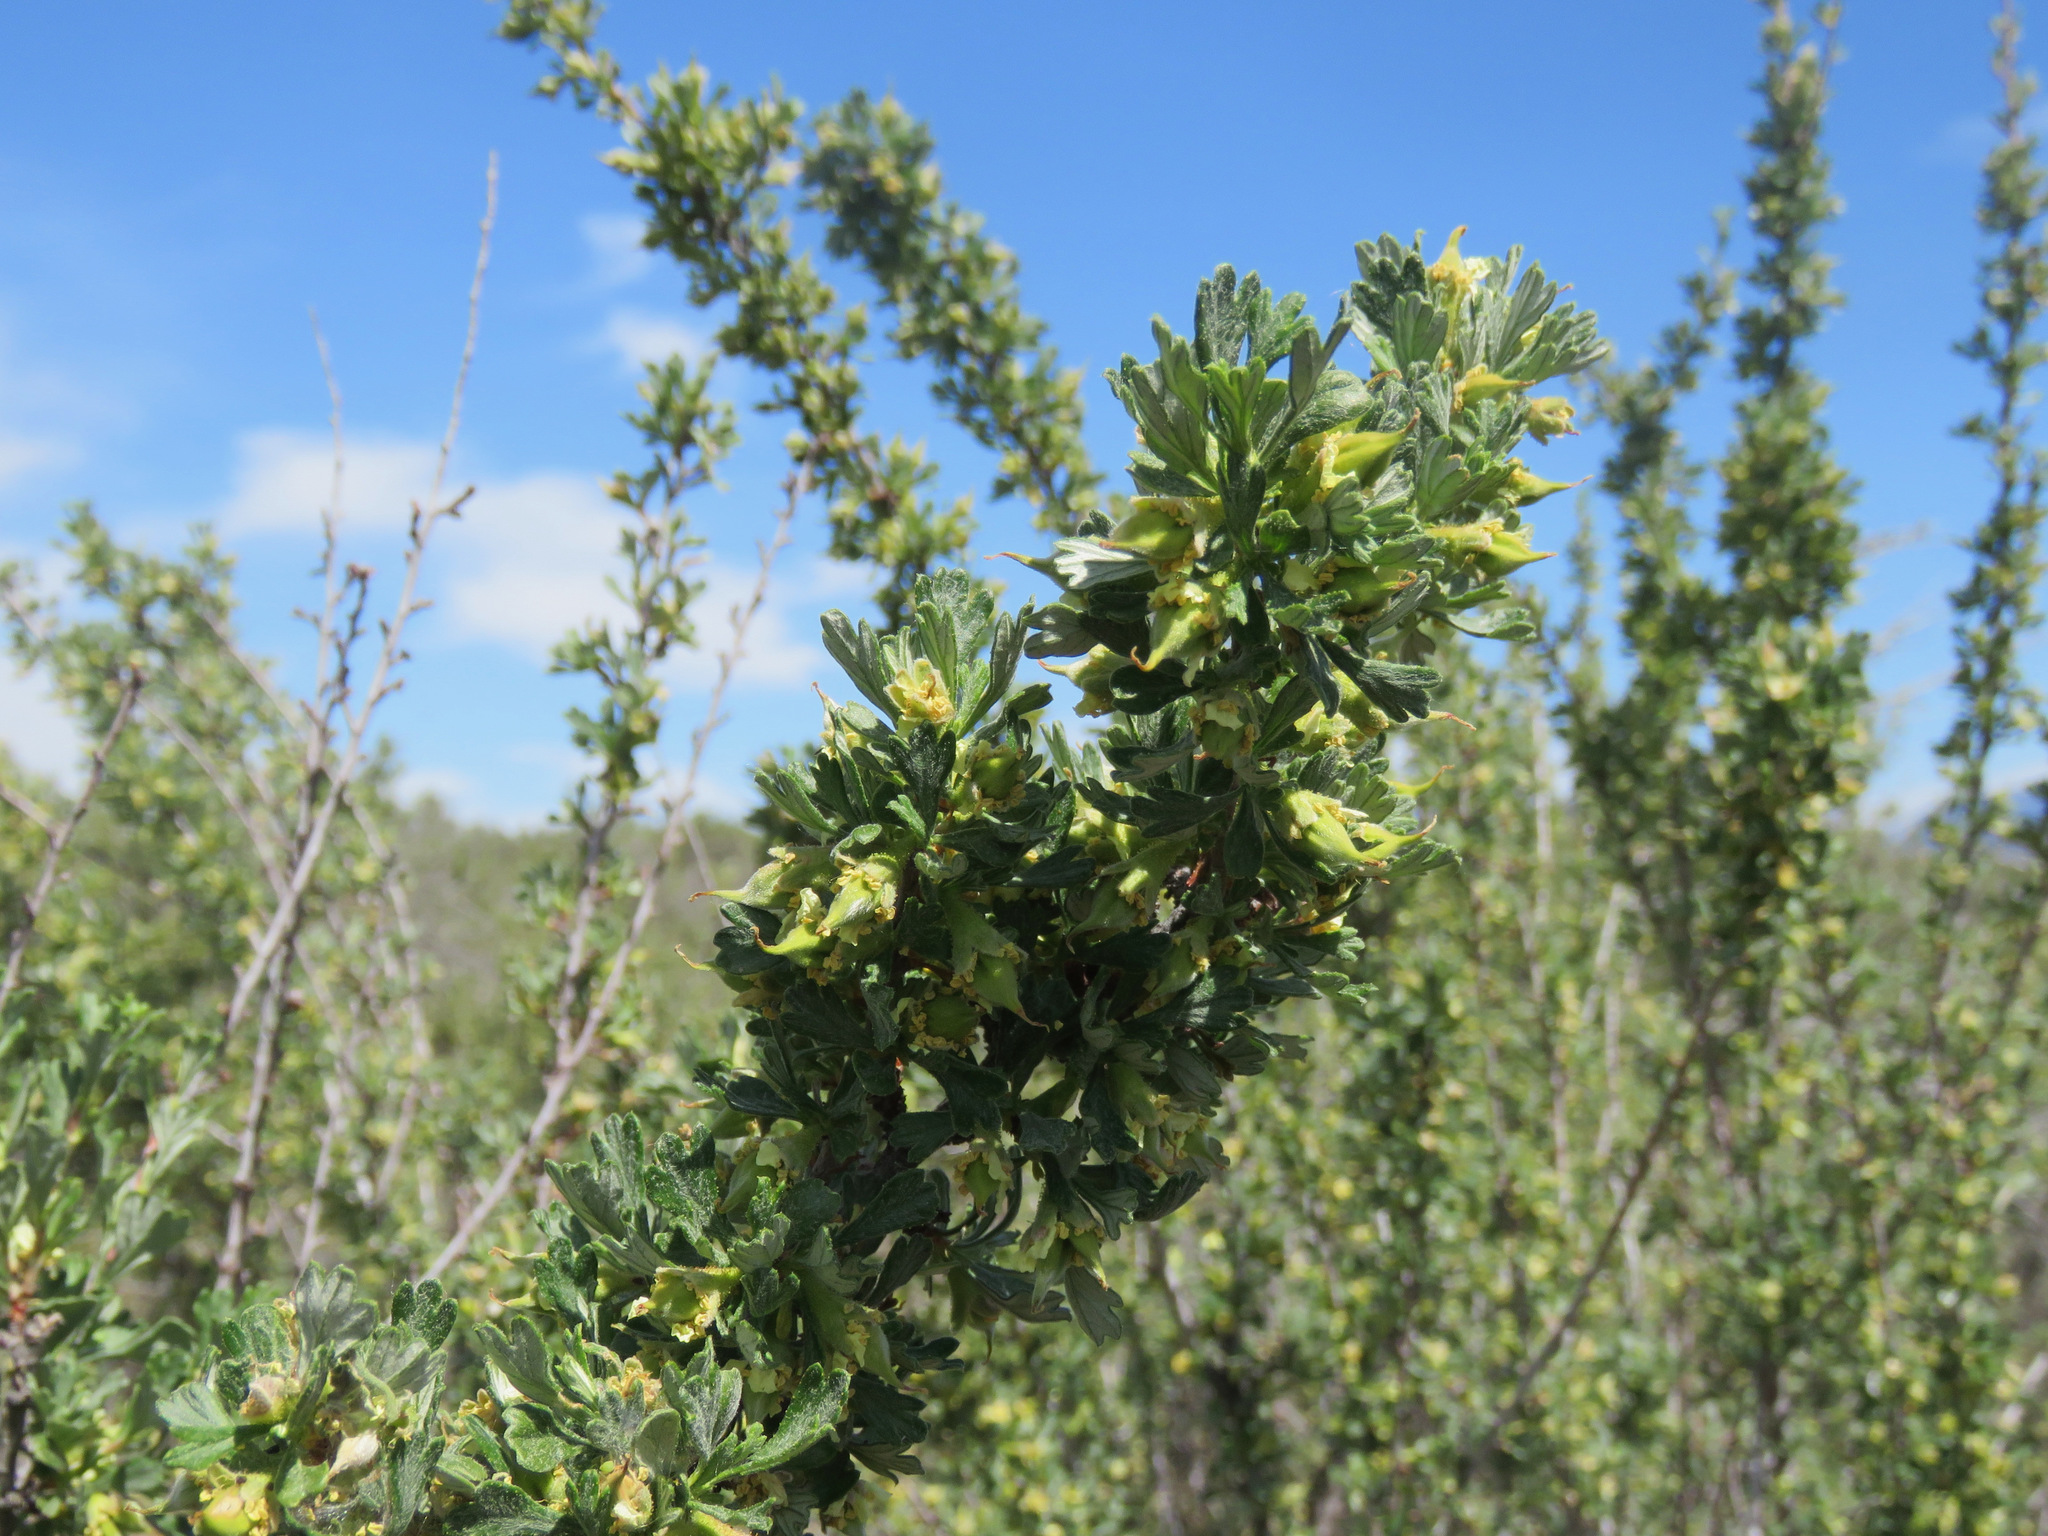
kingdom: Plantae
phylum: Tracheophyta
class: Magnoliopsida
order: Rosales
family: Rosaceae
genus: Purshia
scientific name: Purshia tridentata
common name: Antelope bitterbrush
